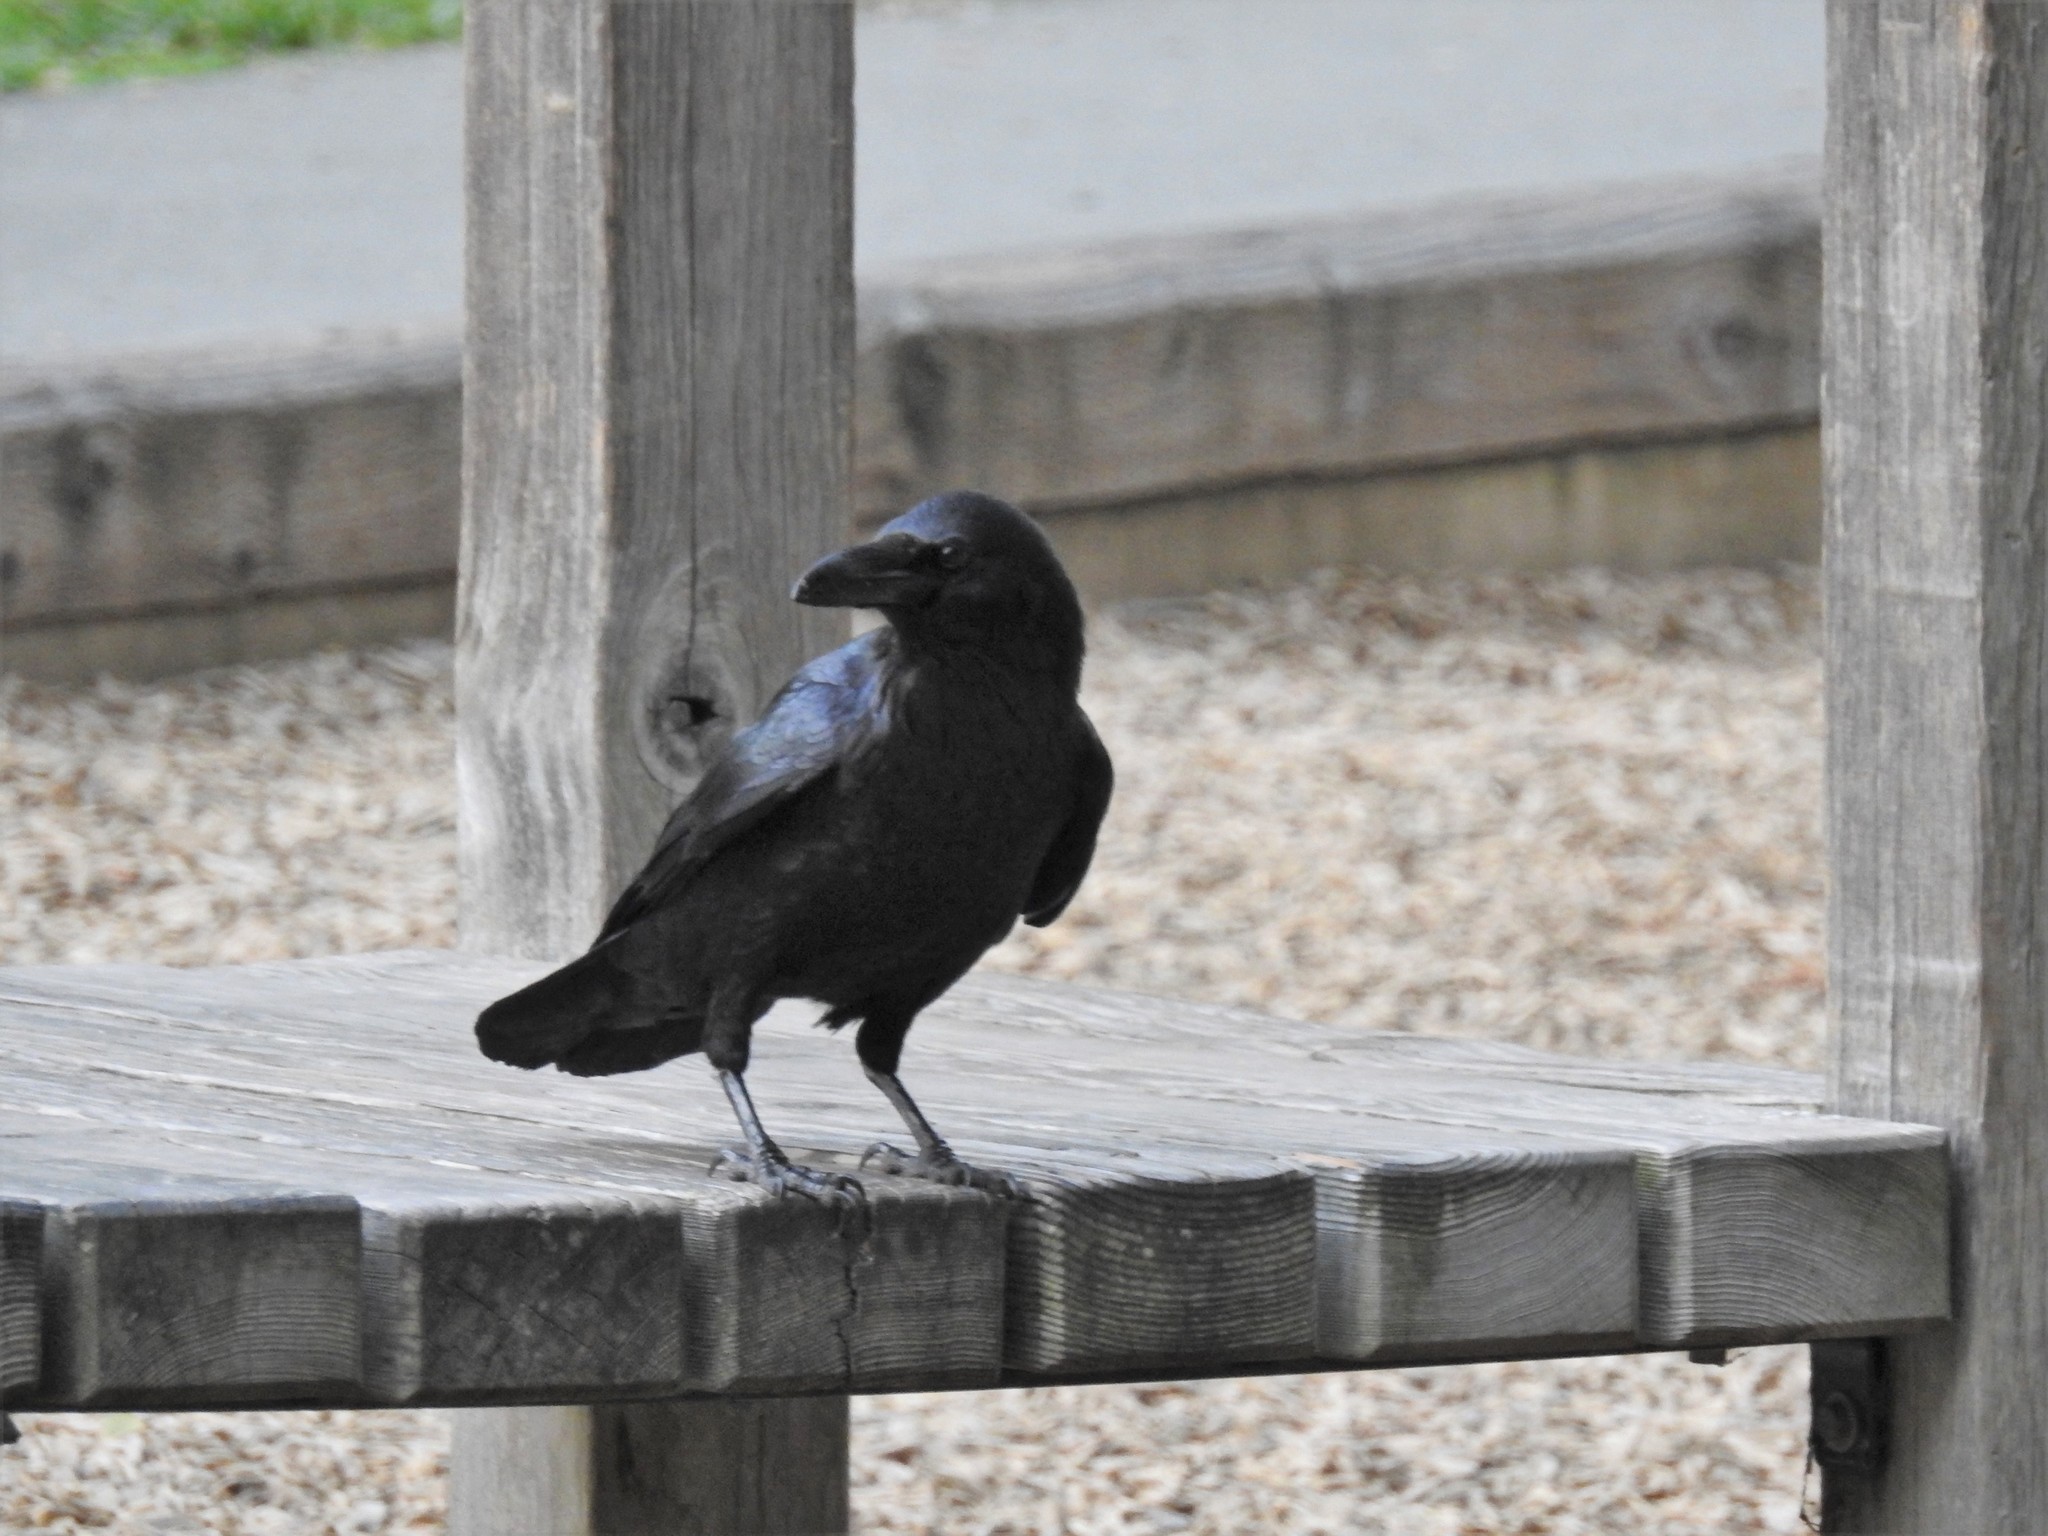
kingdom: Animalia
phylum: Chordata
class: Aves
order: Passeriformes
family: Corvidae
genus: Corvus
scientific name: Corvus corax
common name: Common raven
